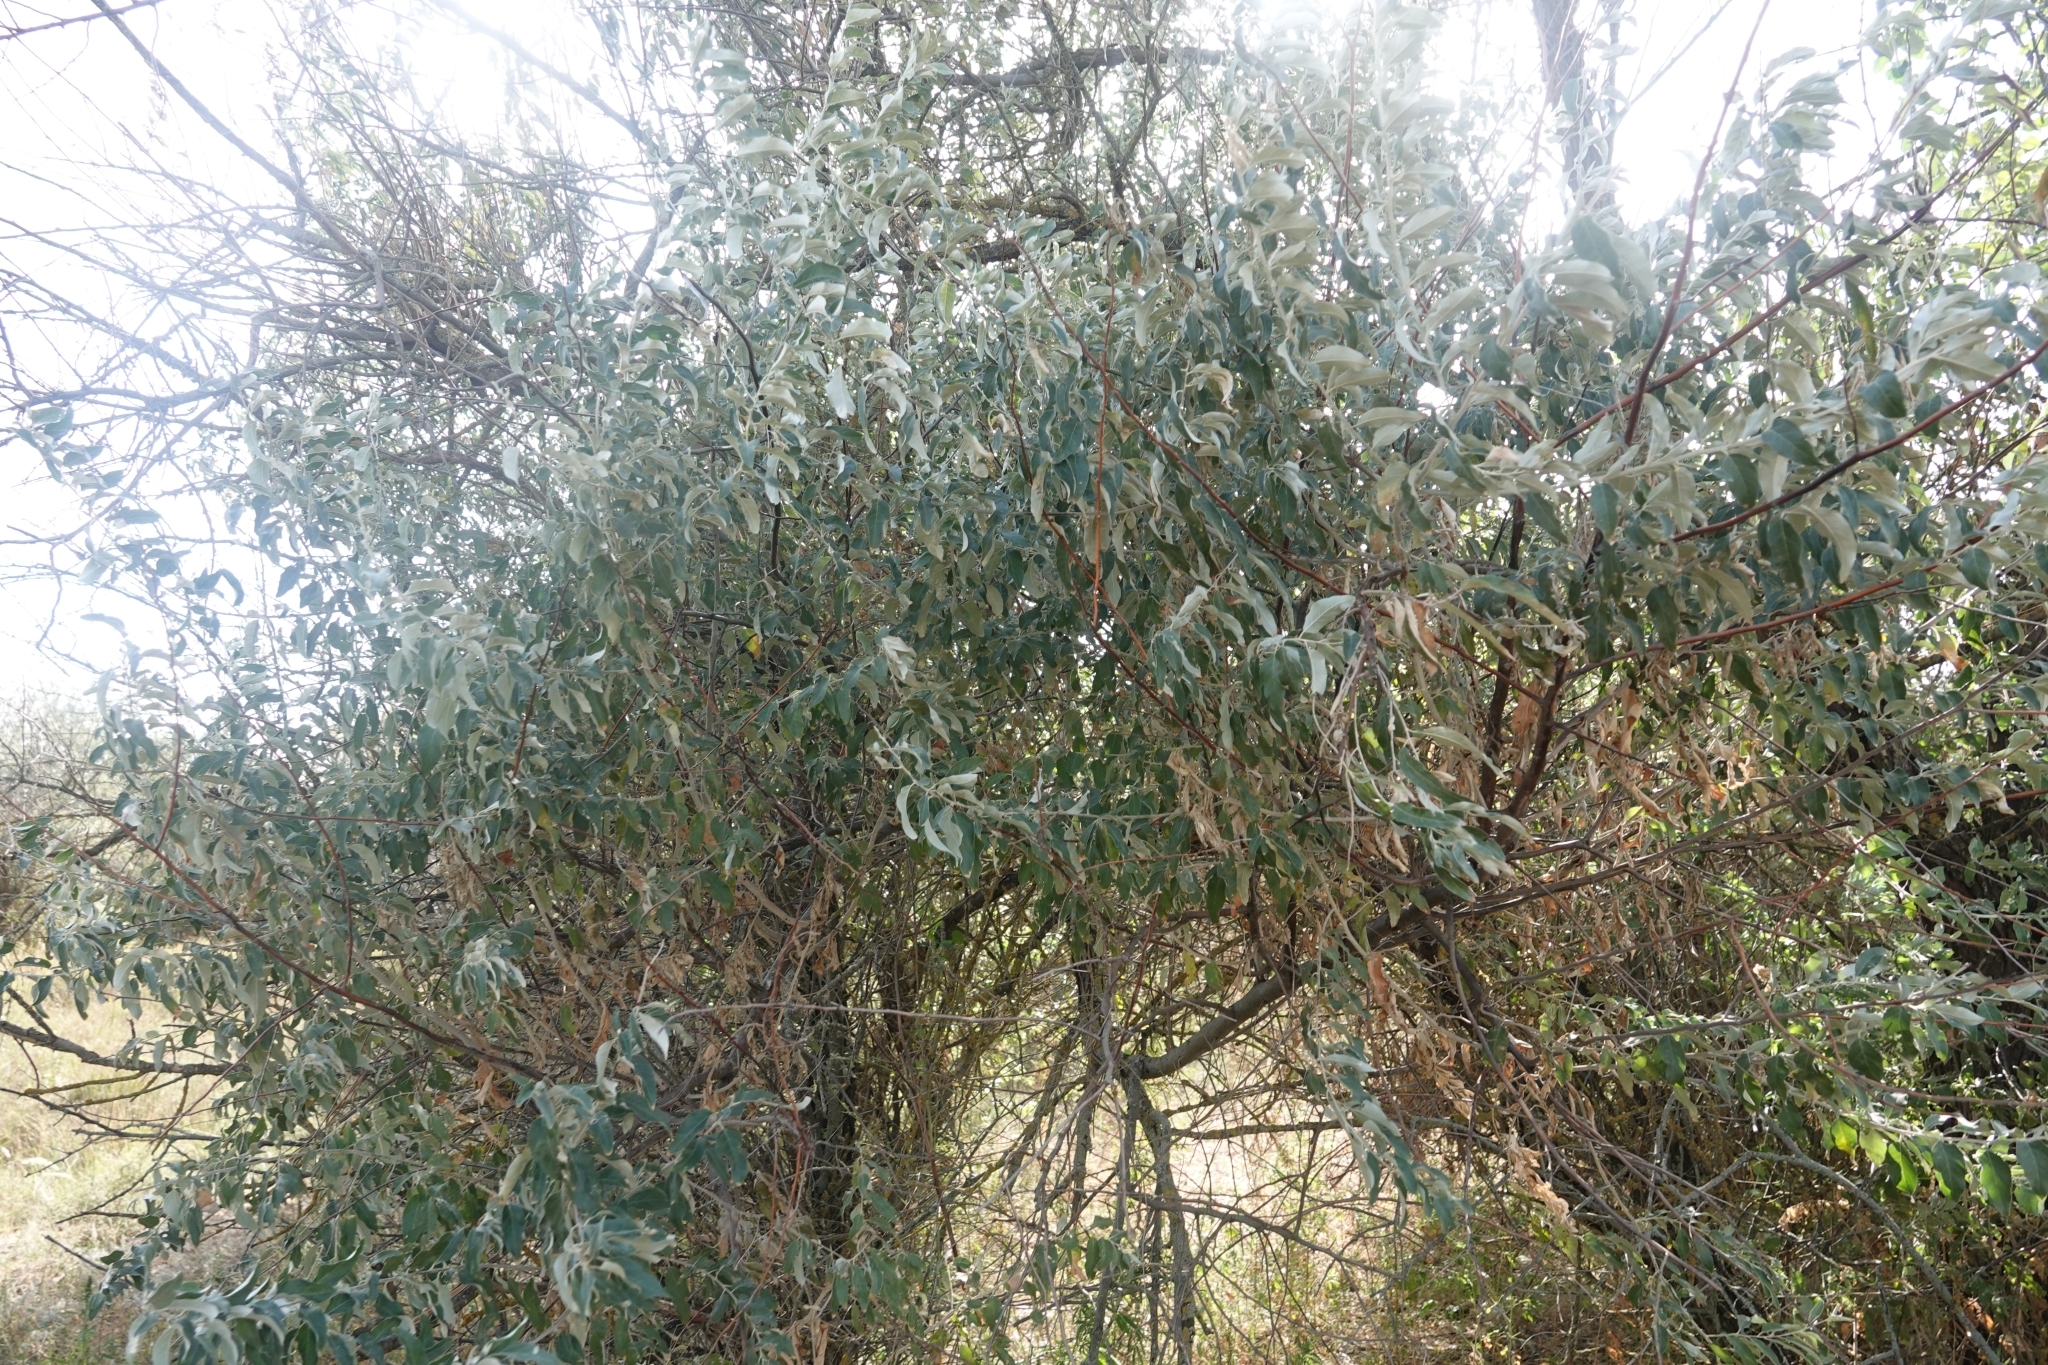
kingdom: Plantae
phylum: Tracheophyta
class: Magnoliopsida
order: Rosales
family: Elaeagnaceae
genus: Elaeagnus
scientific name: Elaeagnus angustifolia
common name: Russian olive
